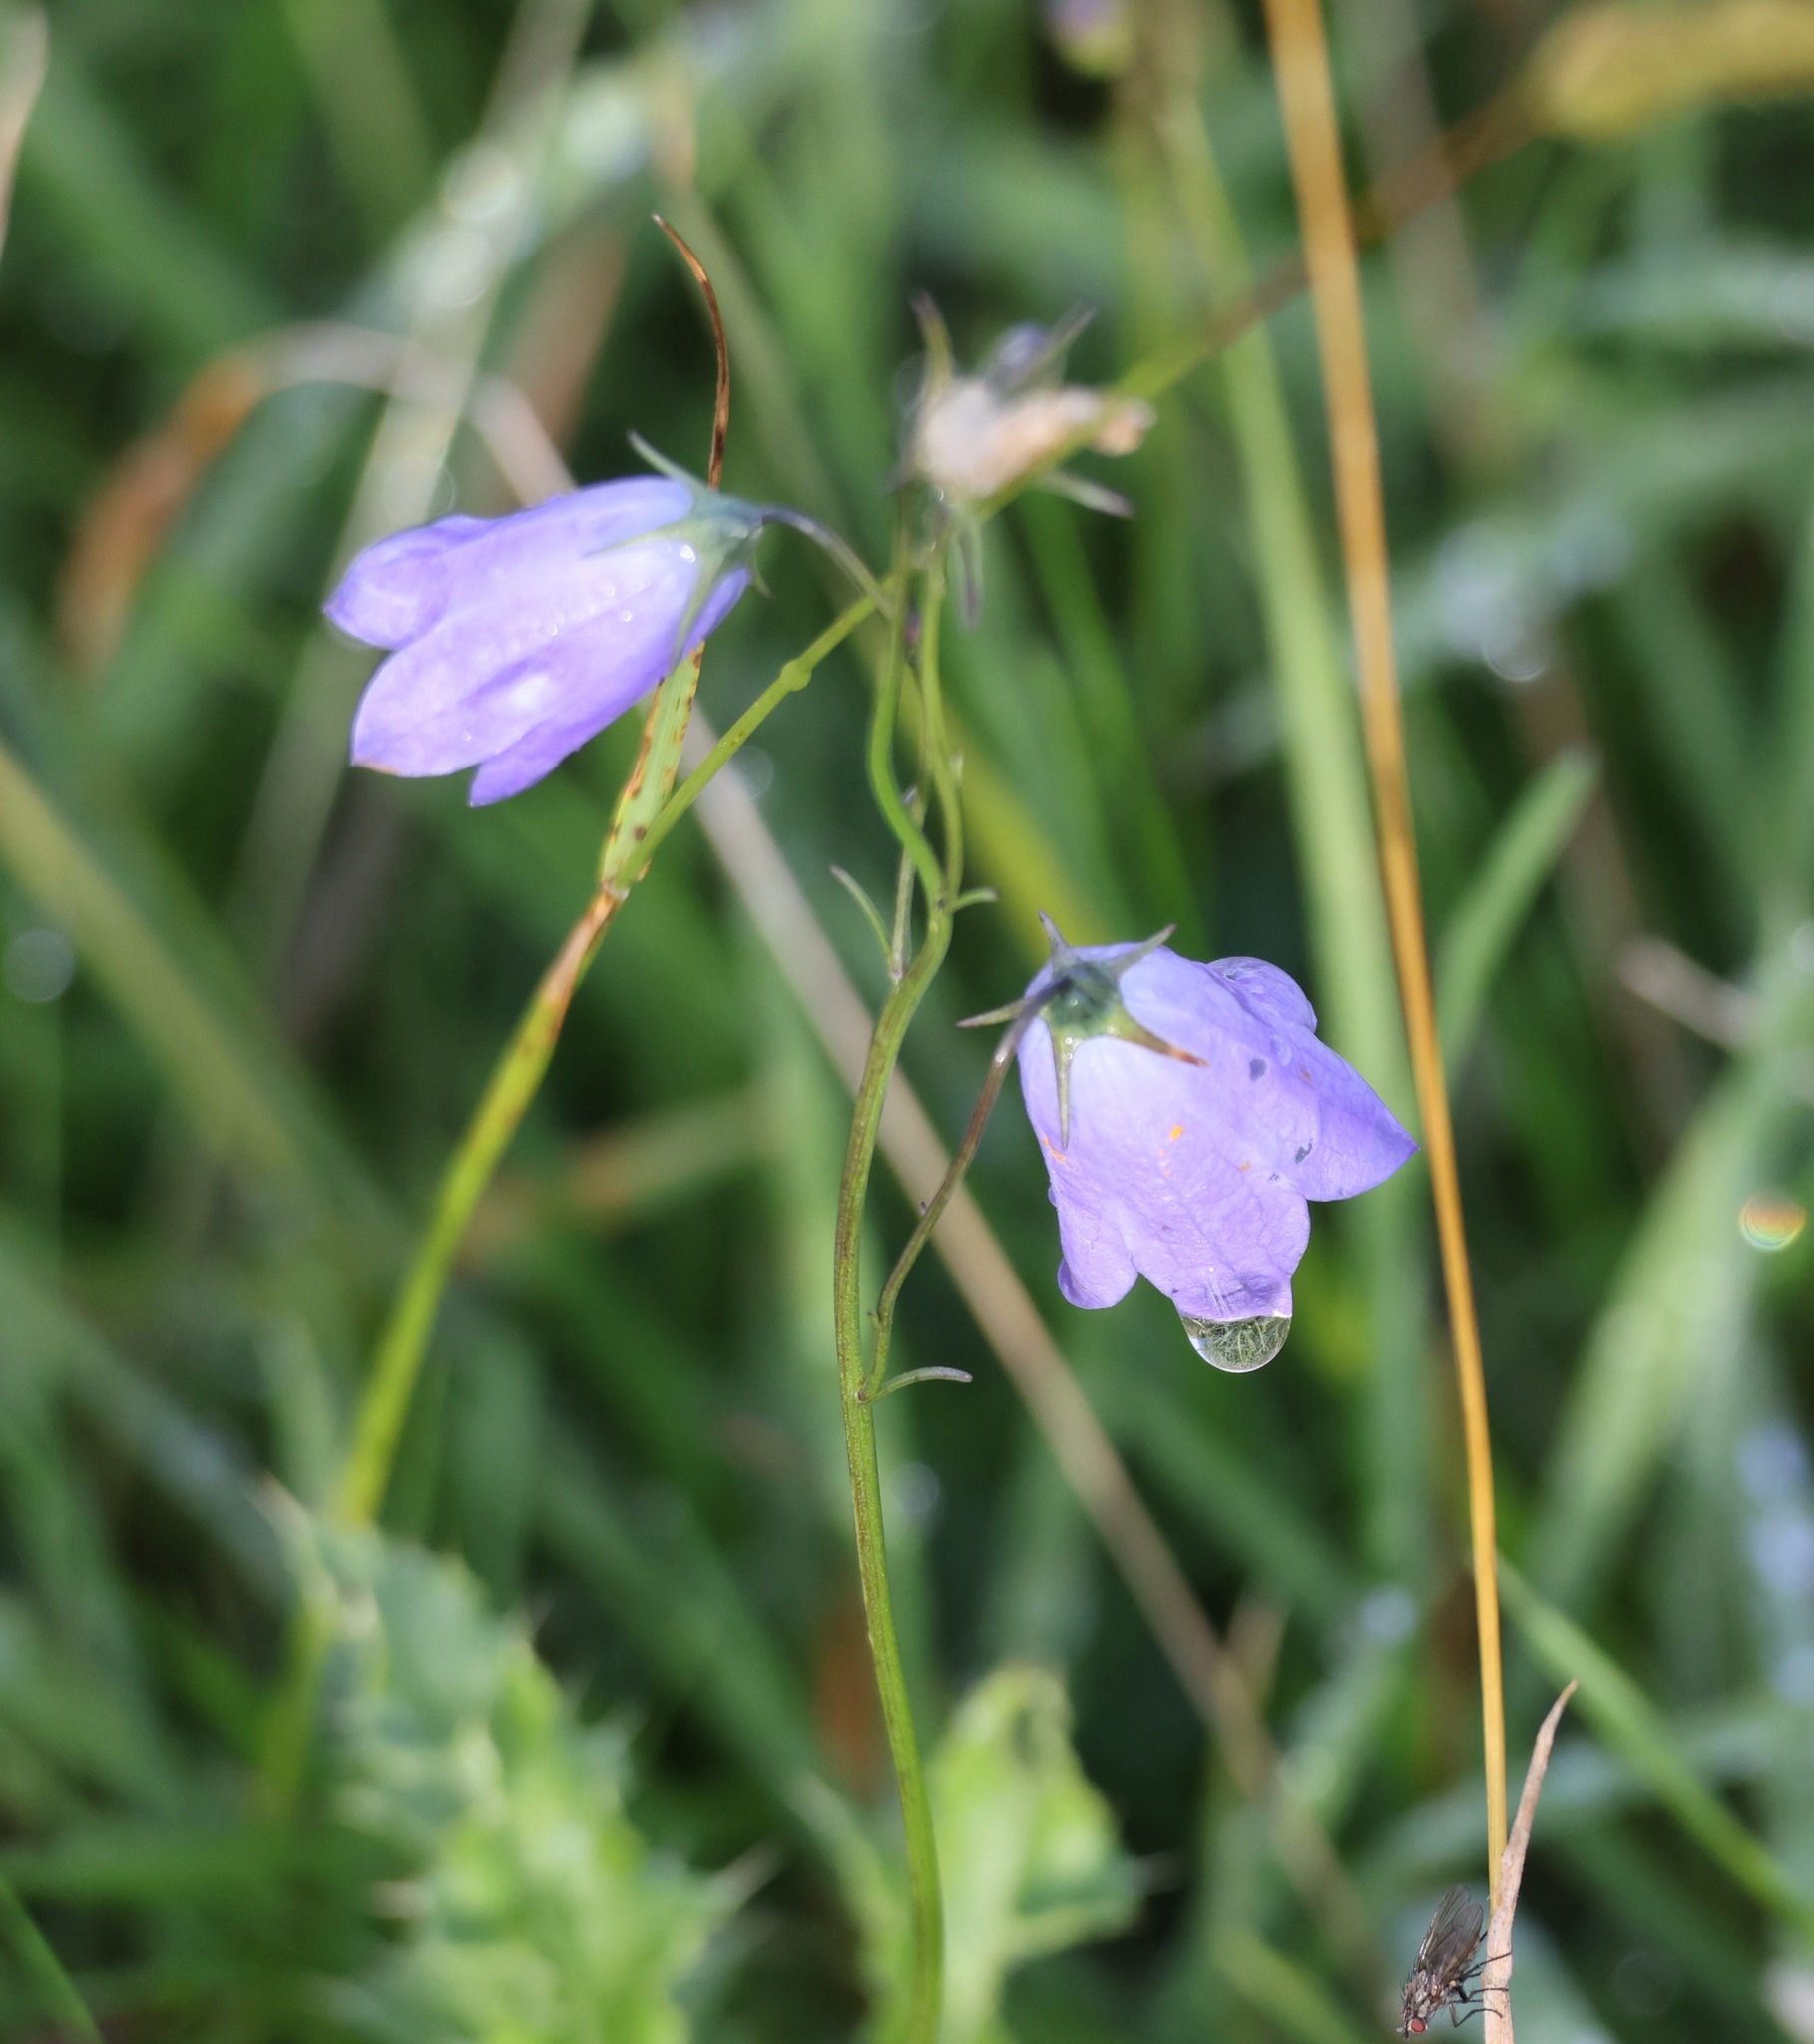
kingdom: Plantae
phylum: Tracheophyta
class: Magnoliopsida
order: Asterales
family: Campanulaceae
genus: Campanula
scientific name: Campanula rotundifolia
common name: Harebell
